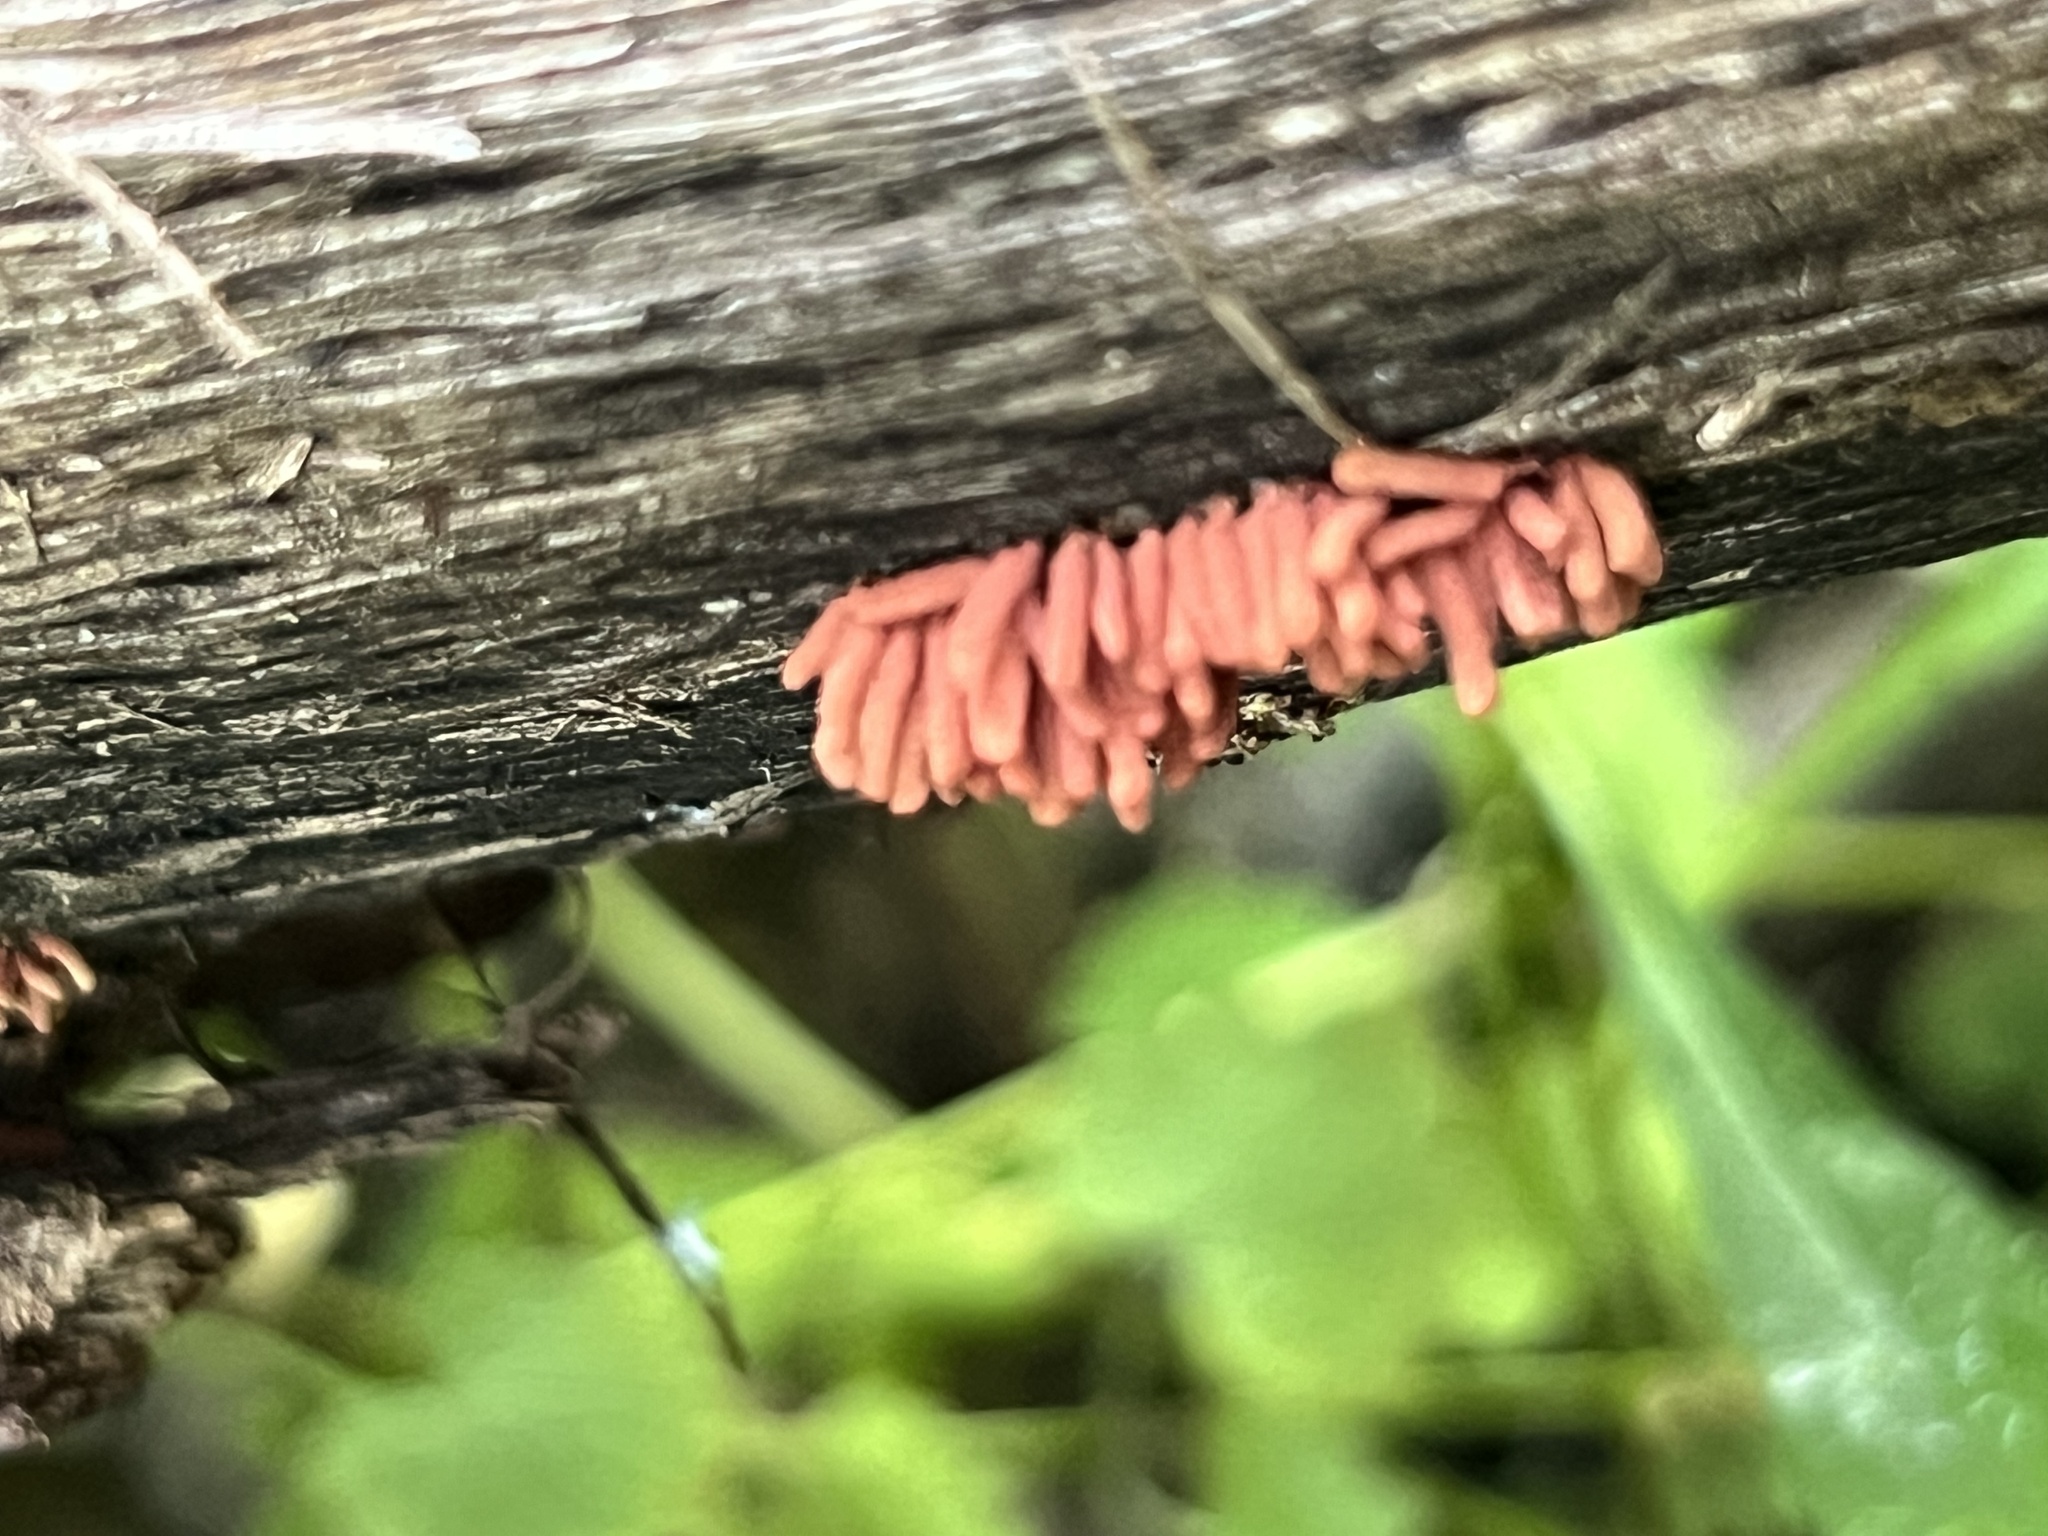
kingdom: Protozoa
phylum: Mycetozoa
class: Myxomycetes
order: Trichiales
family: Arcyriaceae
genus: Arcyria
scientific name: Arcyria denudata
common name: Carnival candy slime mold
